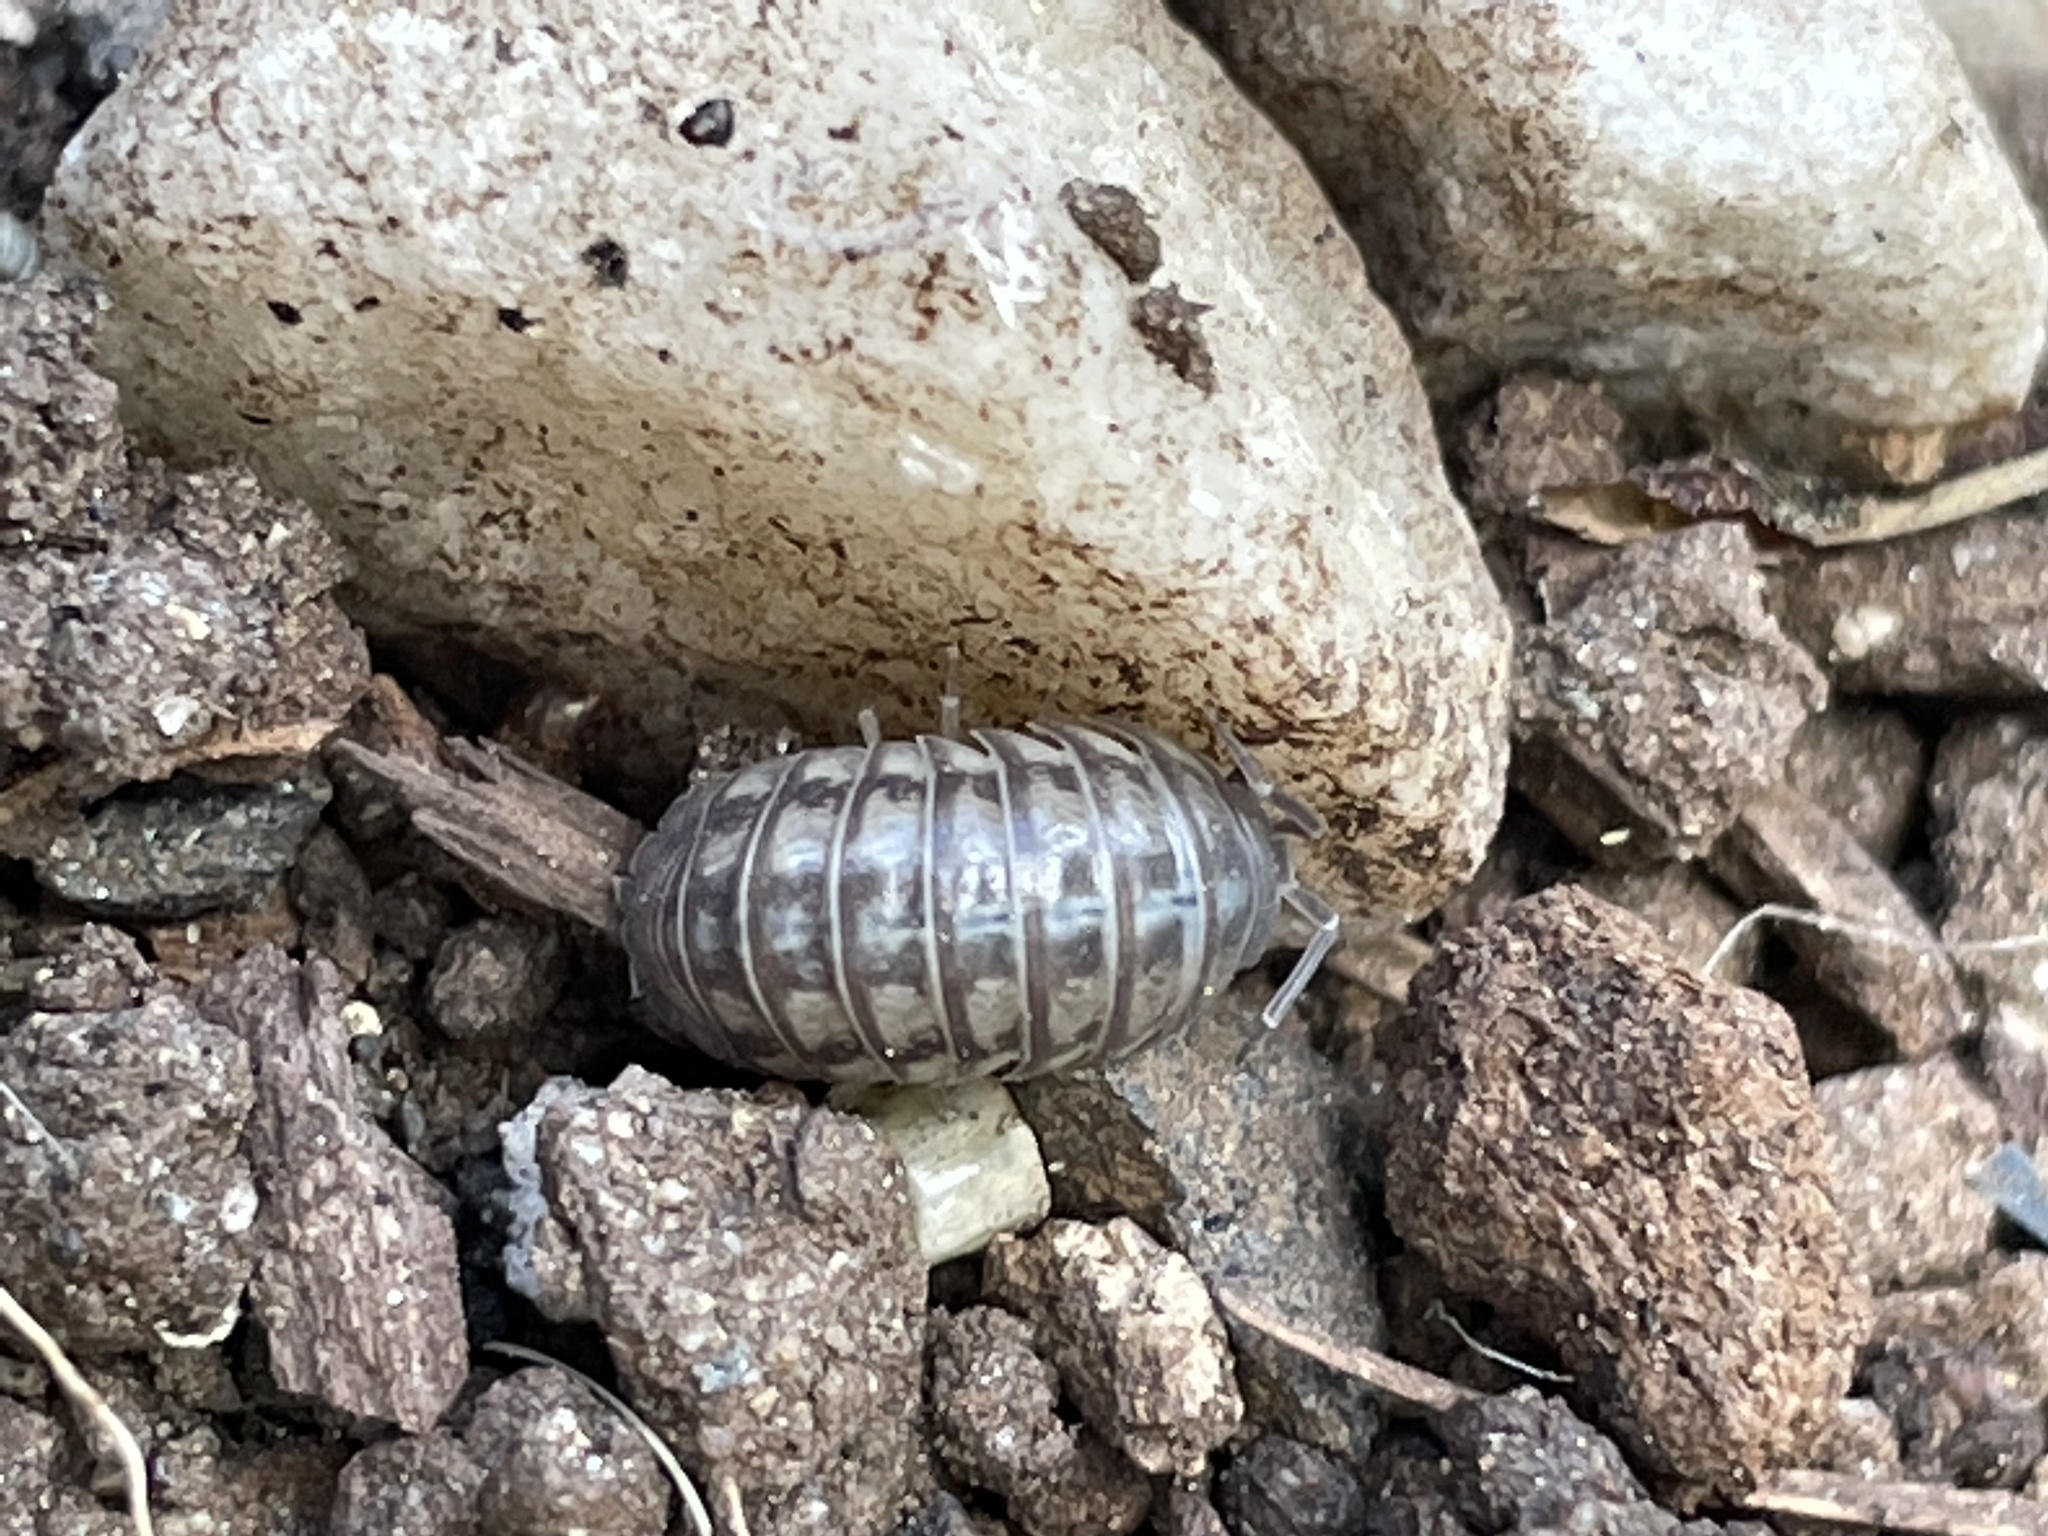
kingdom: Animalia
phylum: Arthropoda
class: Malacostraca
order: Isopoda
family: Armadillidiidae
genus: Armadillidium
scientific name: Armadillidium nasatum
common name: Isopod
